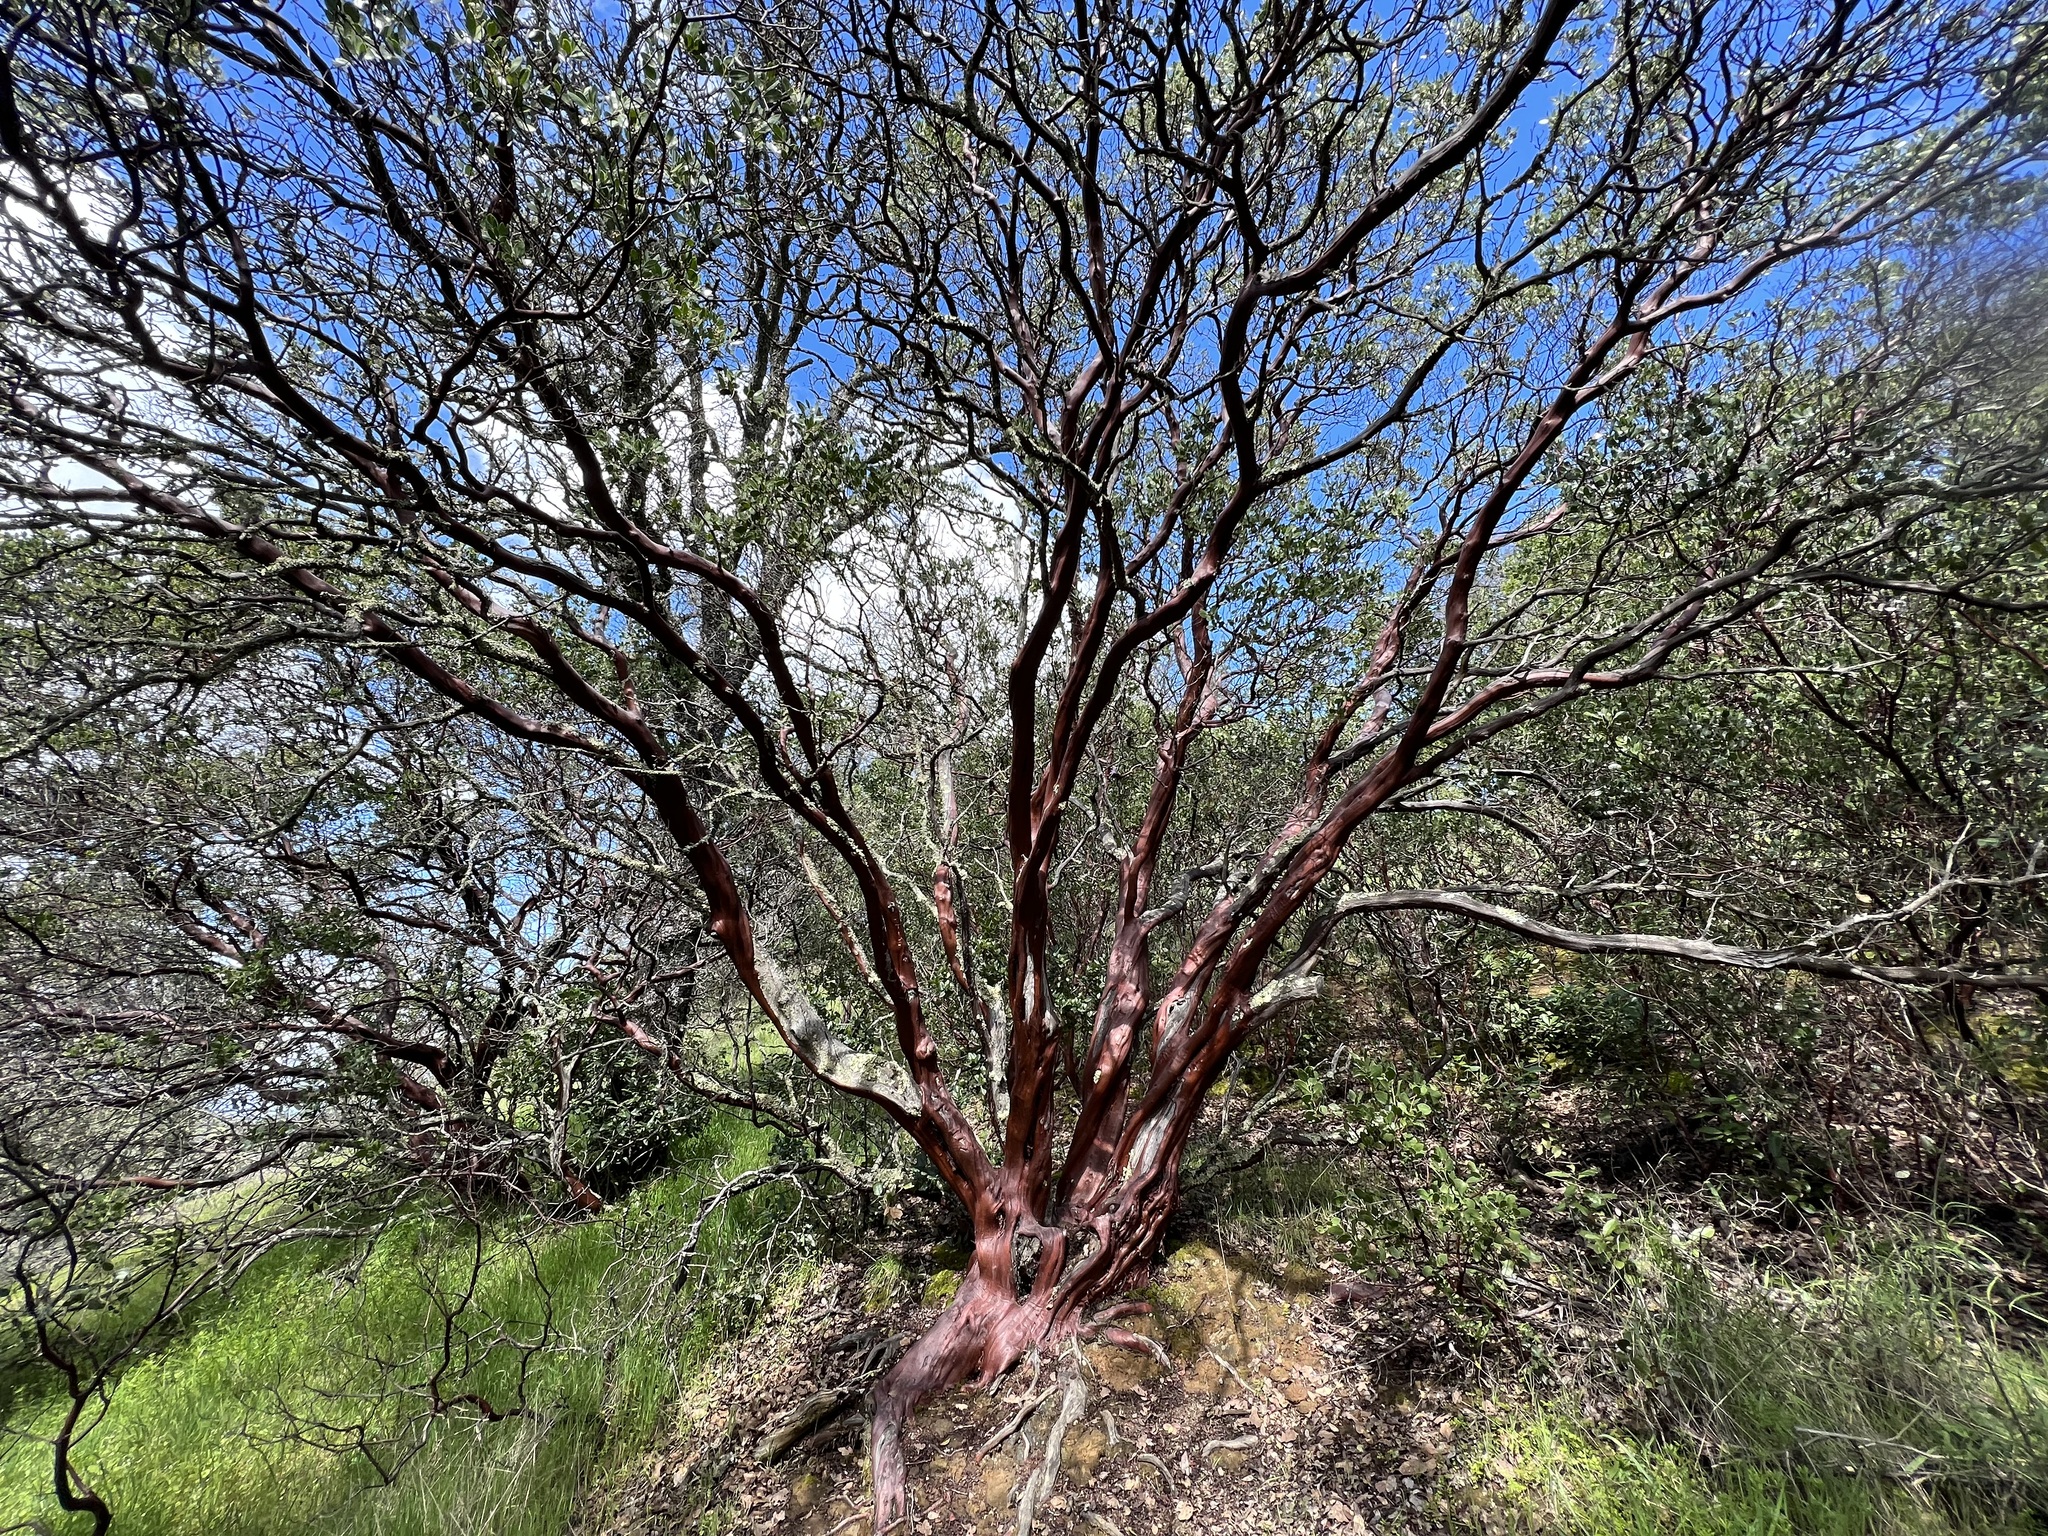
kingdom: Plantae
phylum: Tracheophyta
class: Magnoliopsida
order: Ericales
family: Ericaceae
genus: Arctostaphylos
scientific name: Arctostaphylos manzanita
